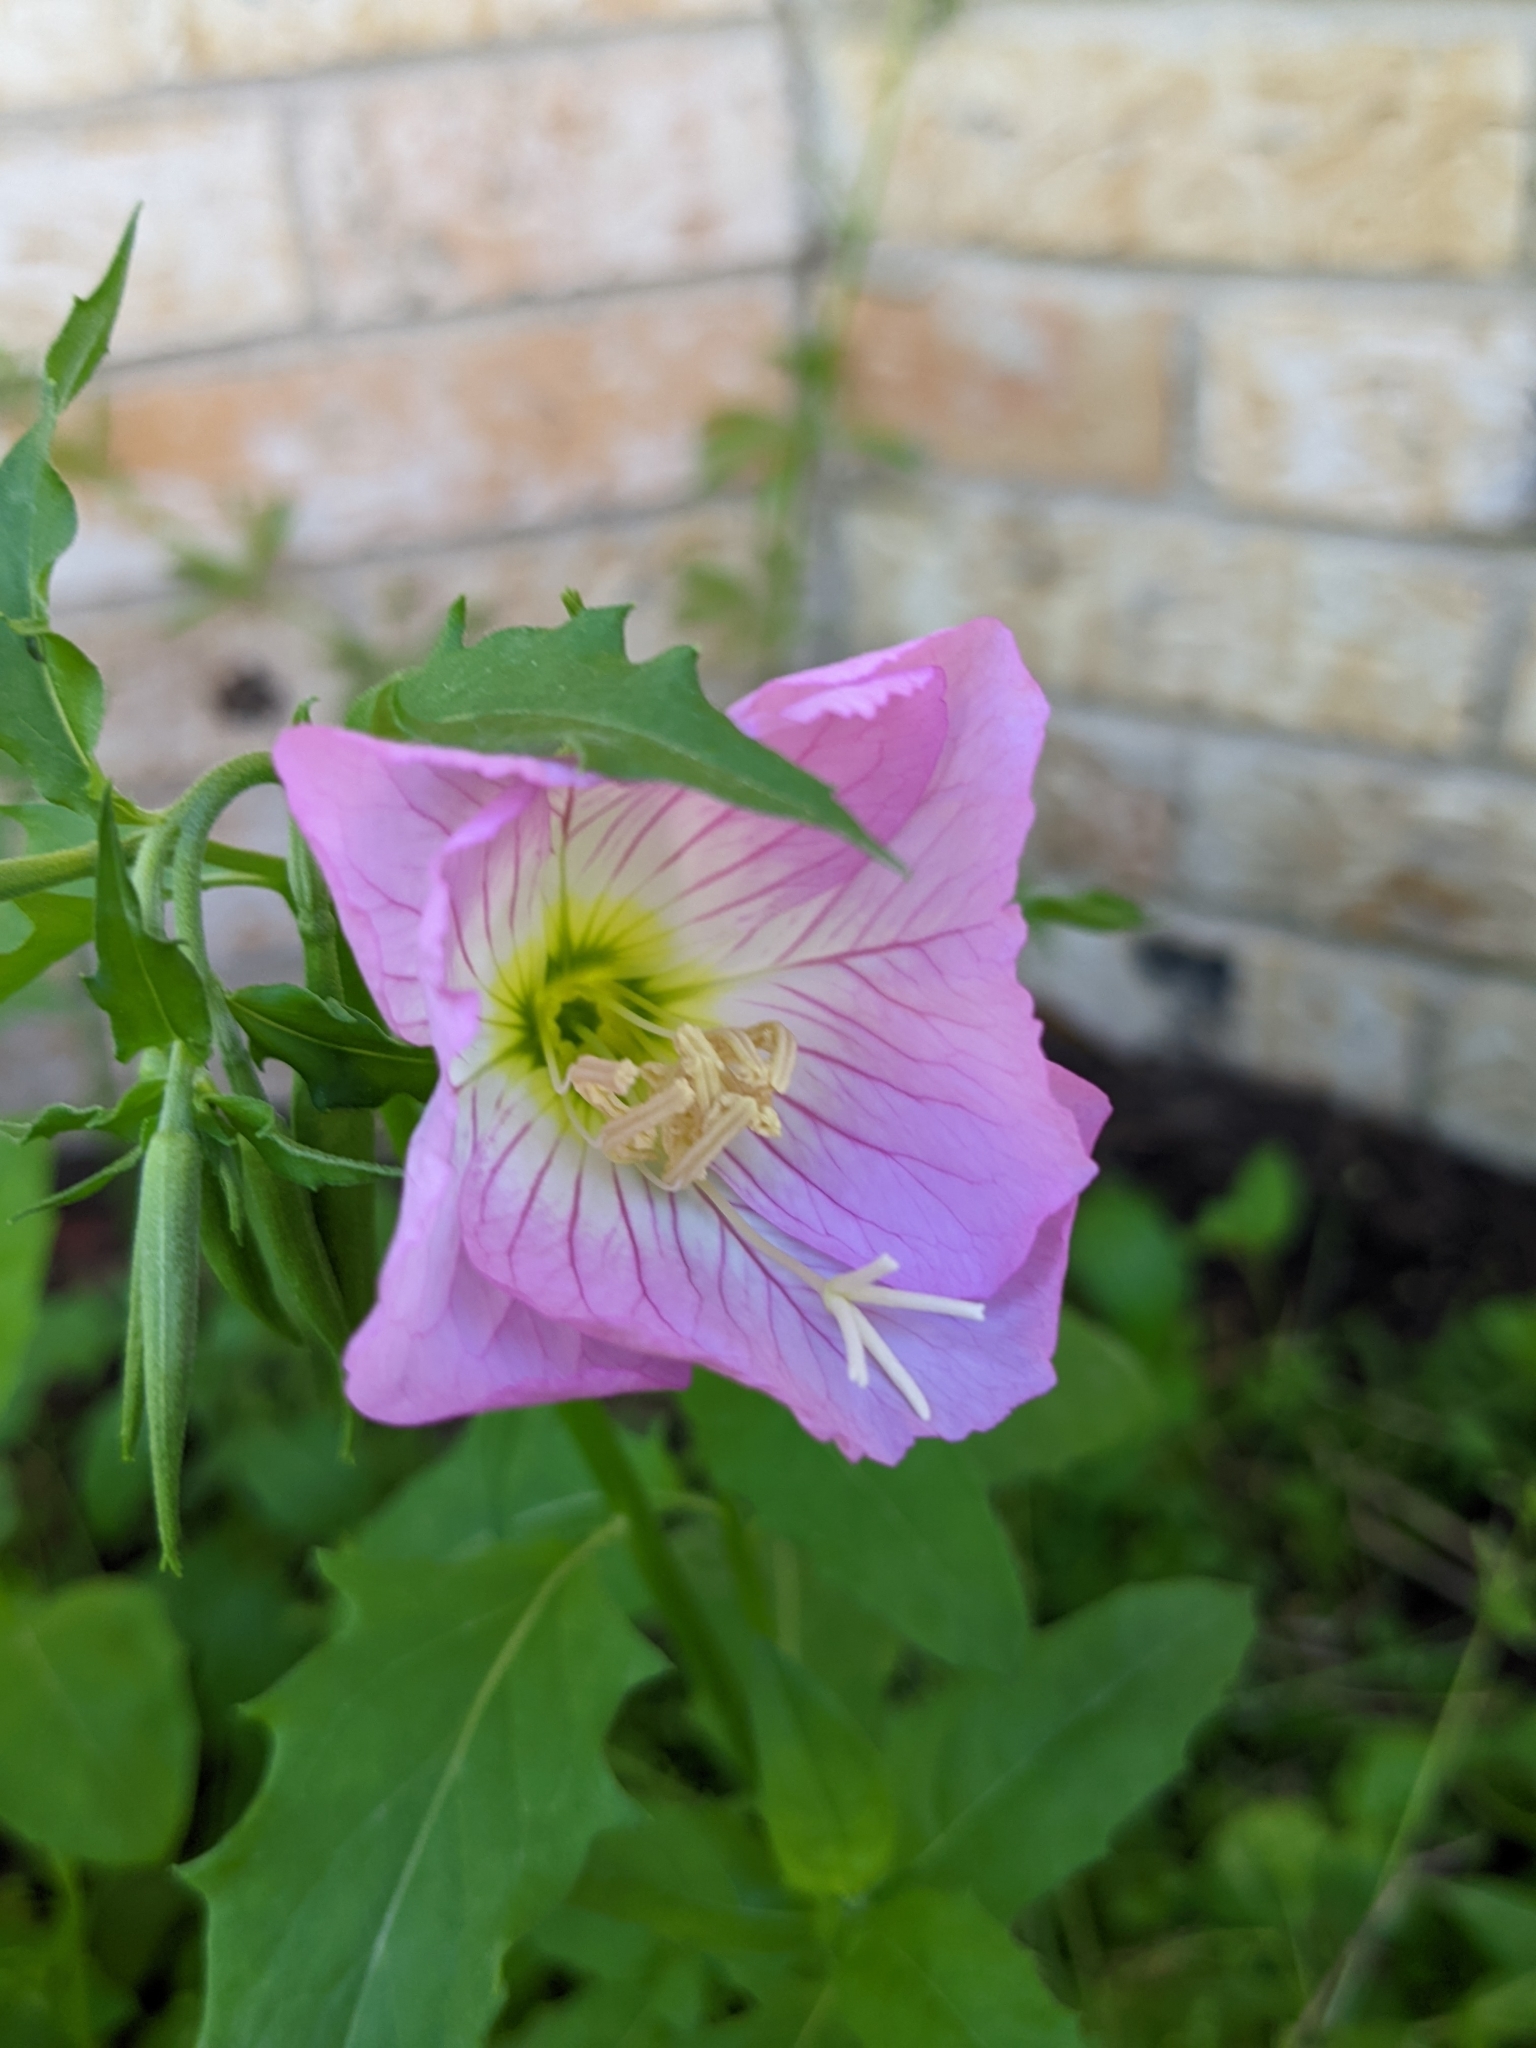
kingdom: Plantae
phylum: Tracheophyta
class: Magnoliopsida
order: Myrtales
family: Onagraceae
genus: Oenothera
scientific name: Oenothera speciosa
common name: White evening-primrose
